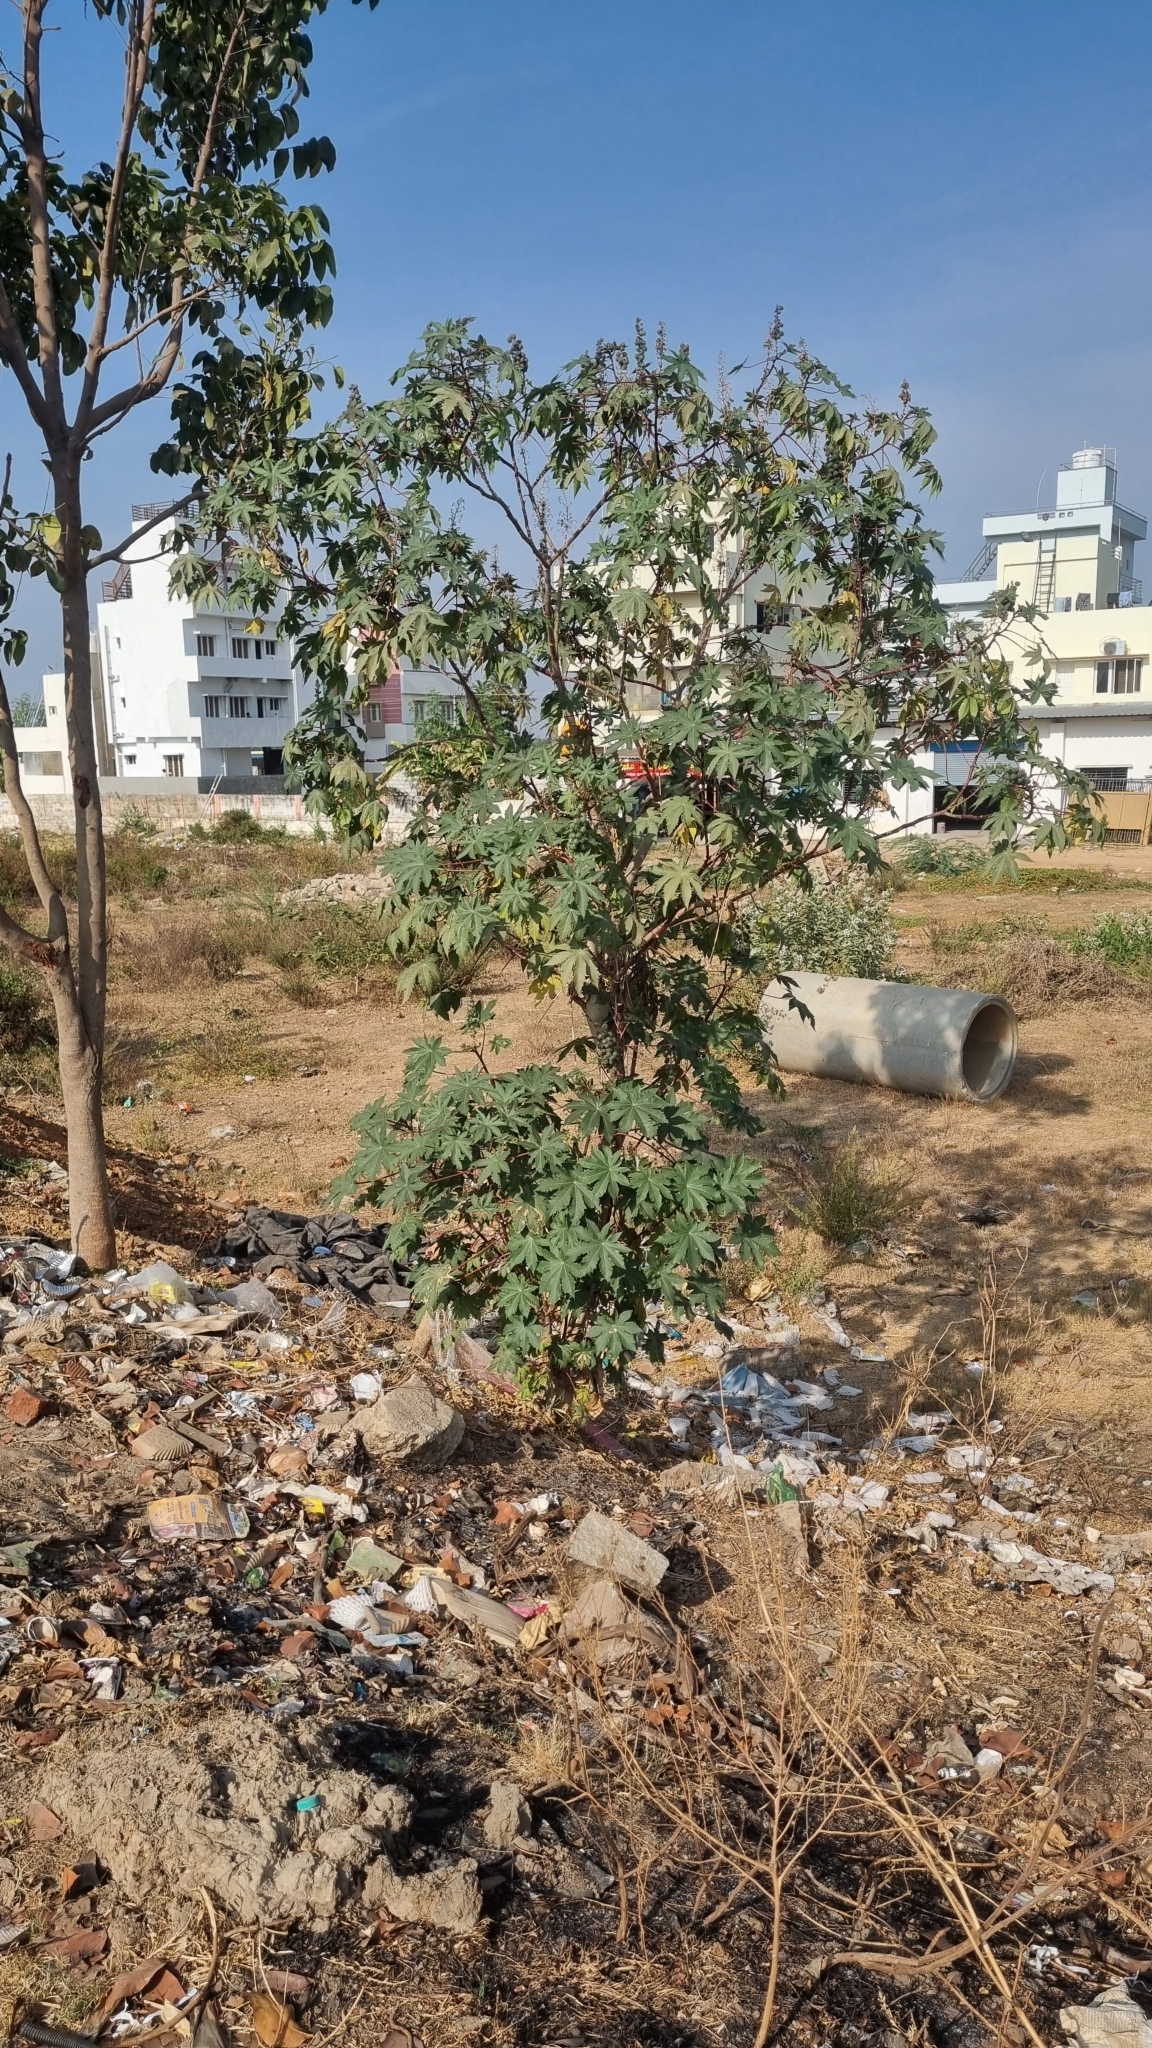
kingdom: Plantae
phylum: Tracheophyta
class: Magnoliopsida
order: Malpighiales
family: Euphorbiaceae
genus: Ricinus
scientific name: Ricinus communis
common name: Castor-oil-plant
